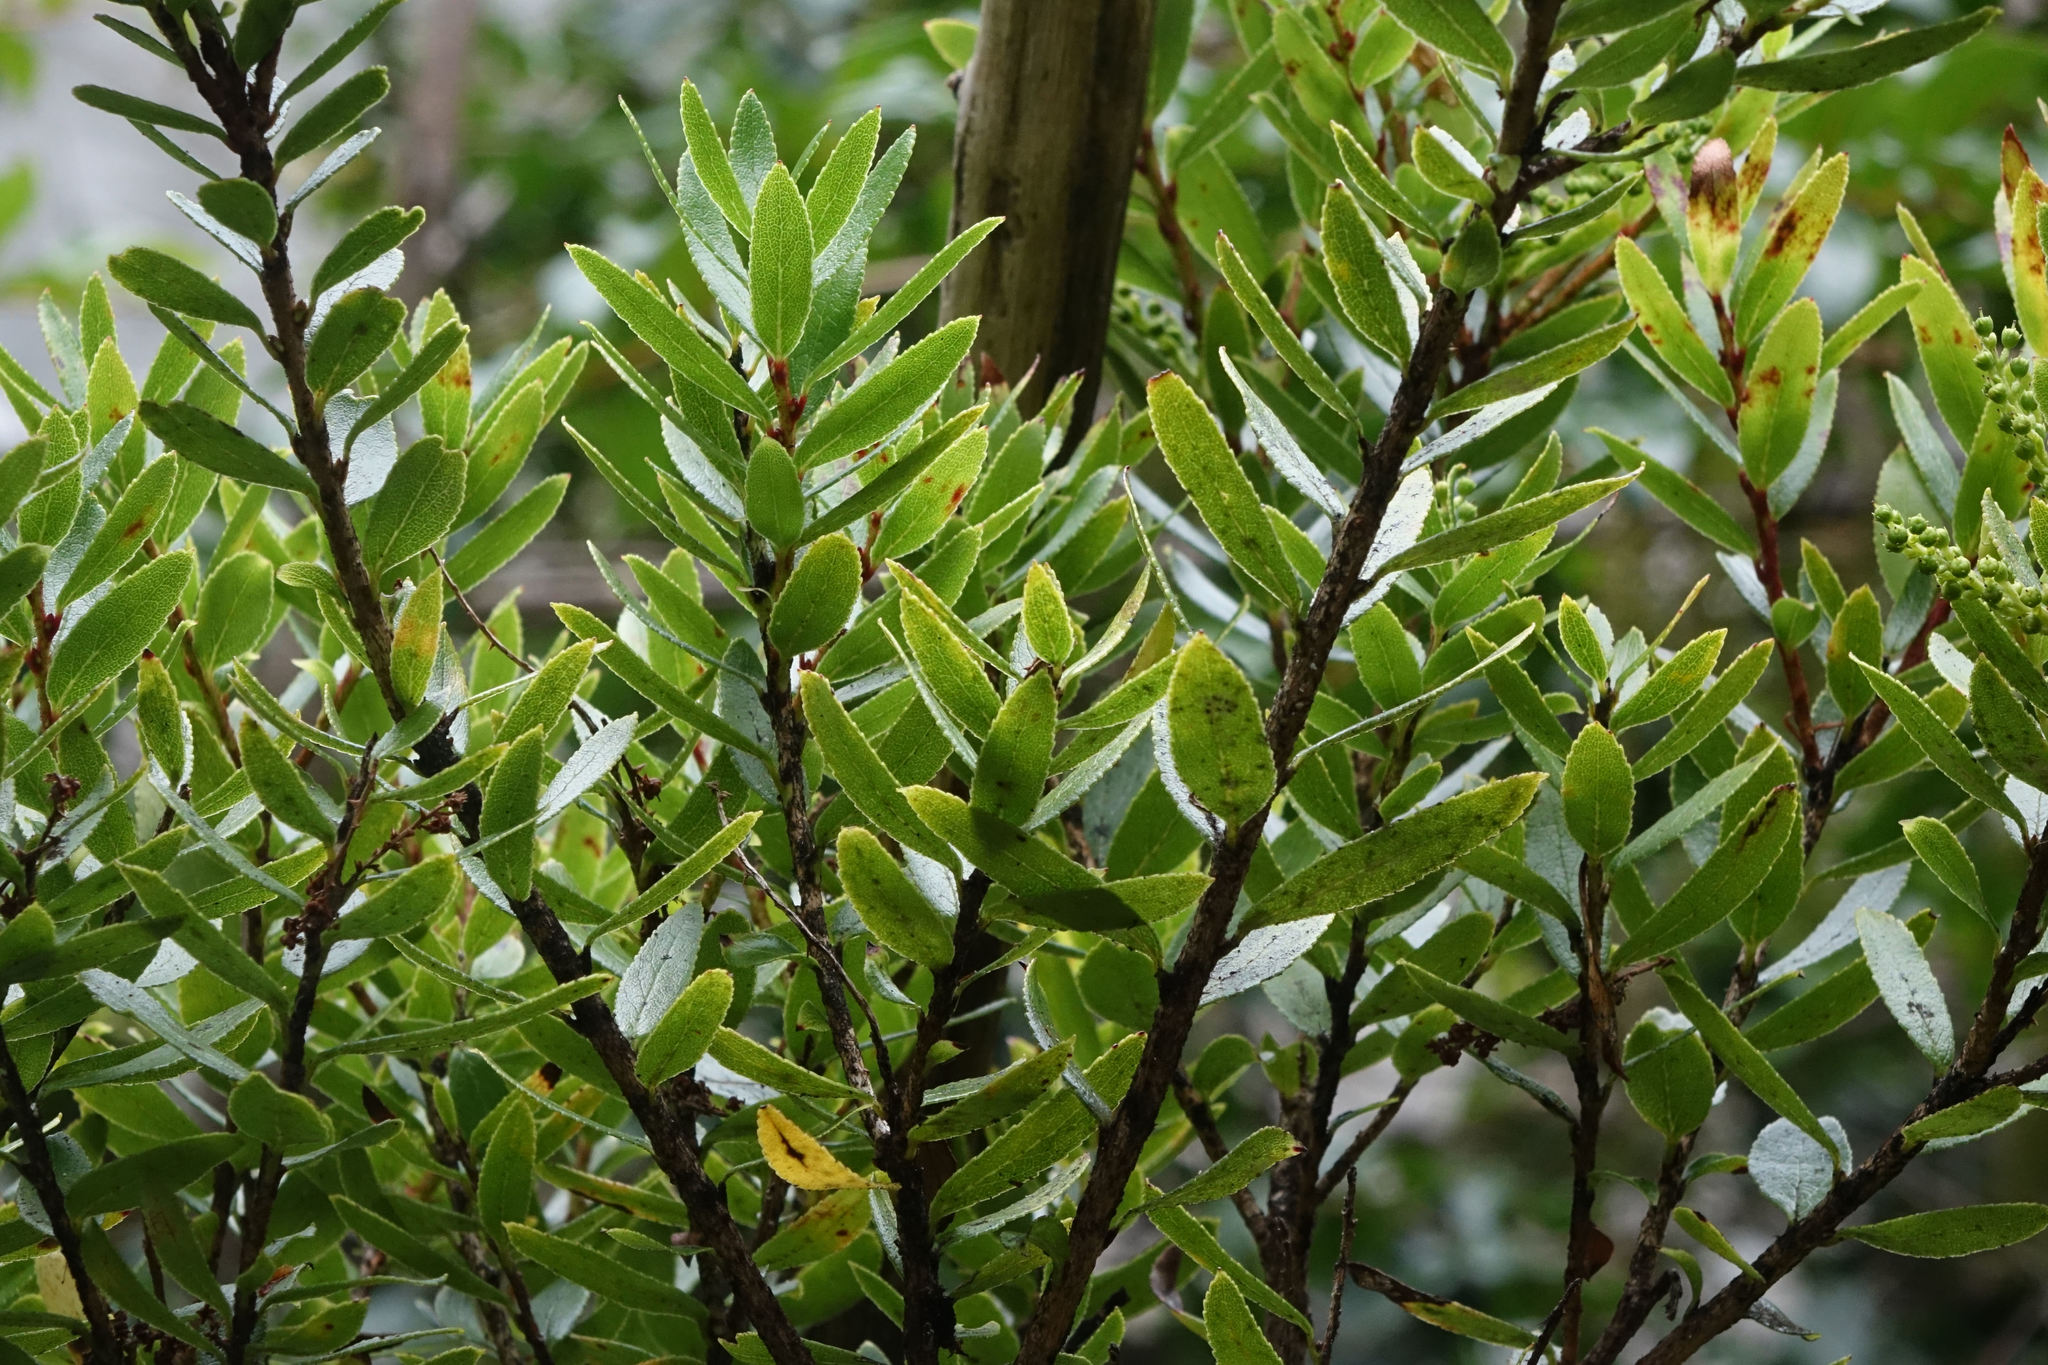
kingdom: Plantae
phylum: Tracheophyta
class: Magnoliopsida
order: Ericales
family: Ericaceae
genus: Gaultheria
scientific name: Gaultheria rupestris
